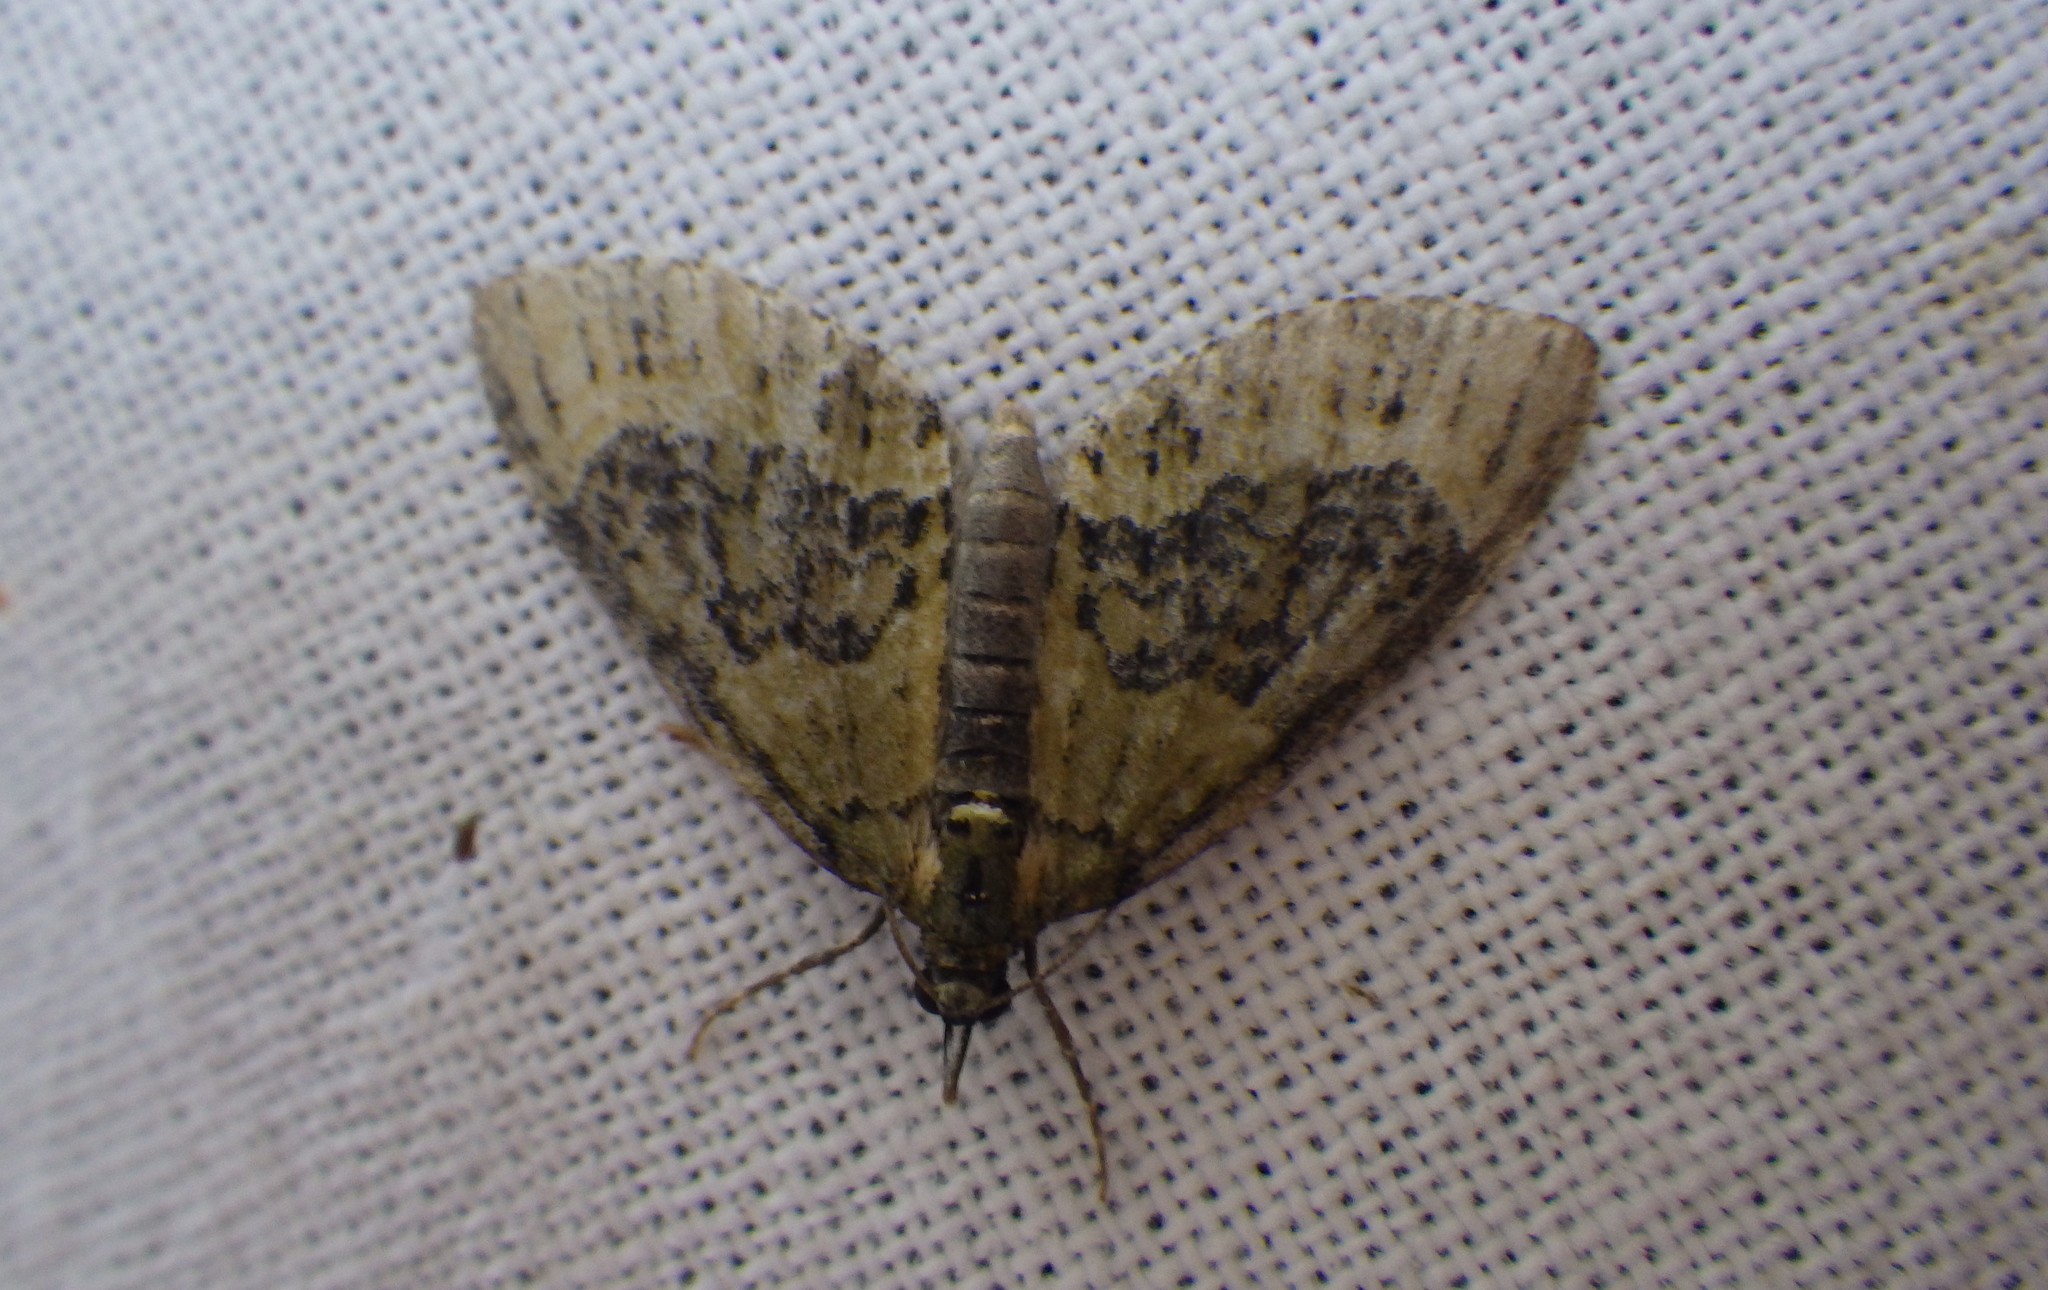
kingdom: Animalia
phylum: Arthropoda
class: Insecta
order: Lepidoptera
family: Geometridae
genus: Acasis
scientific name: Acasis viretata
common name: Yellow-barred brindle
